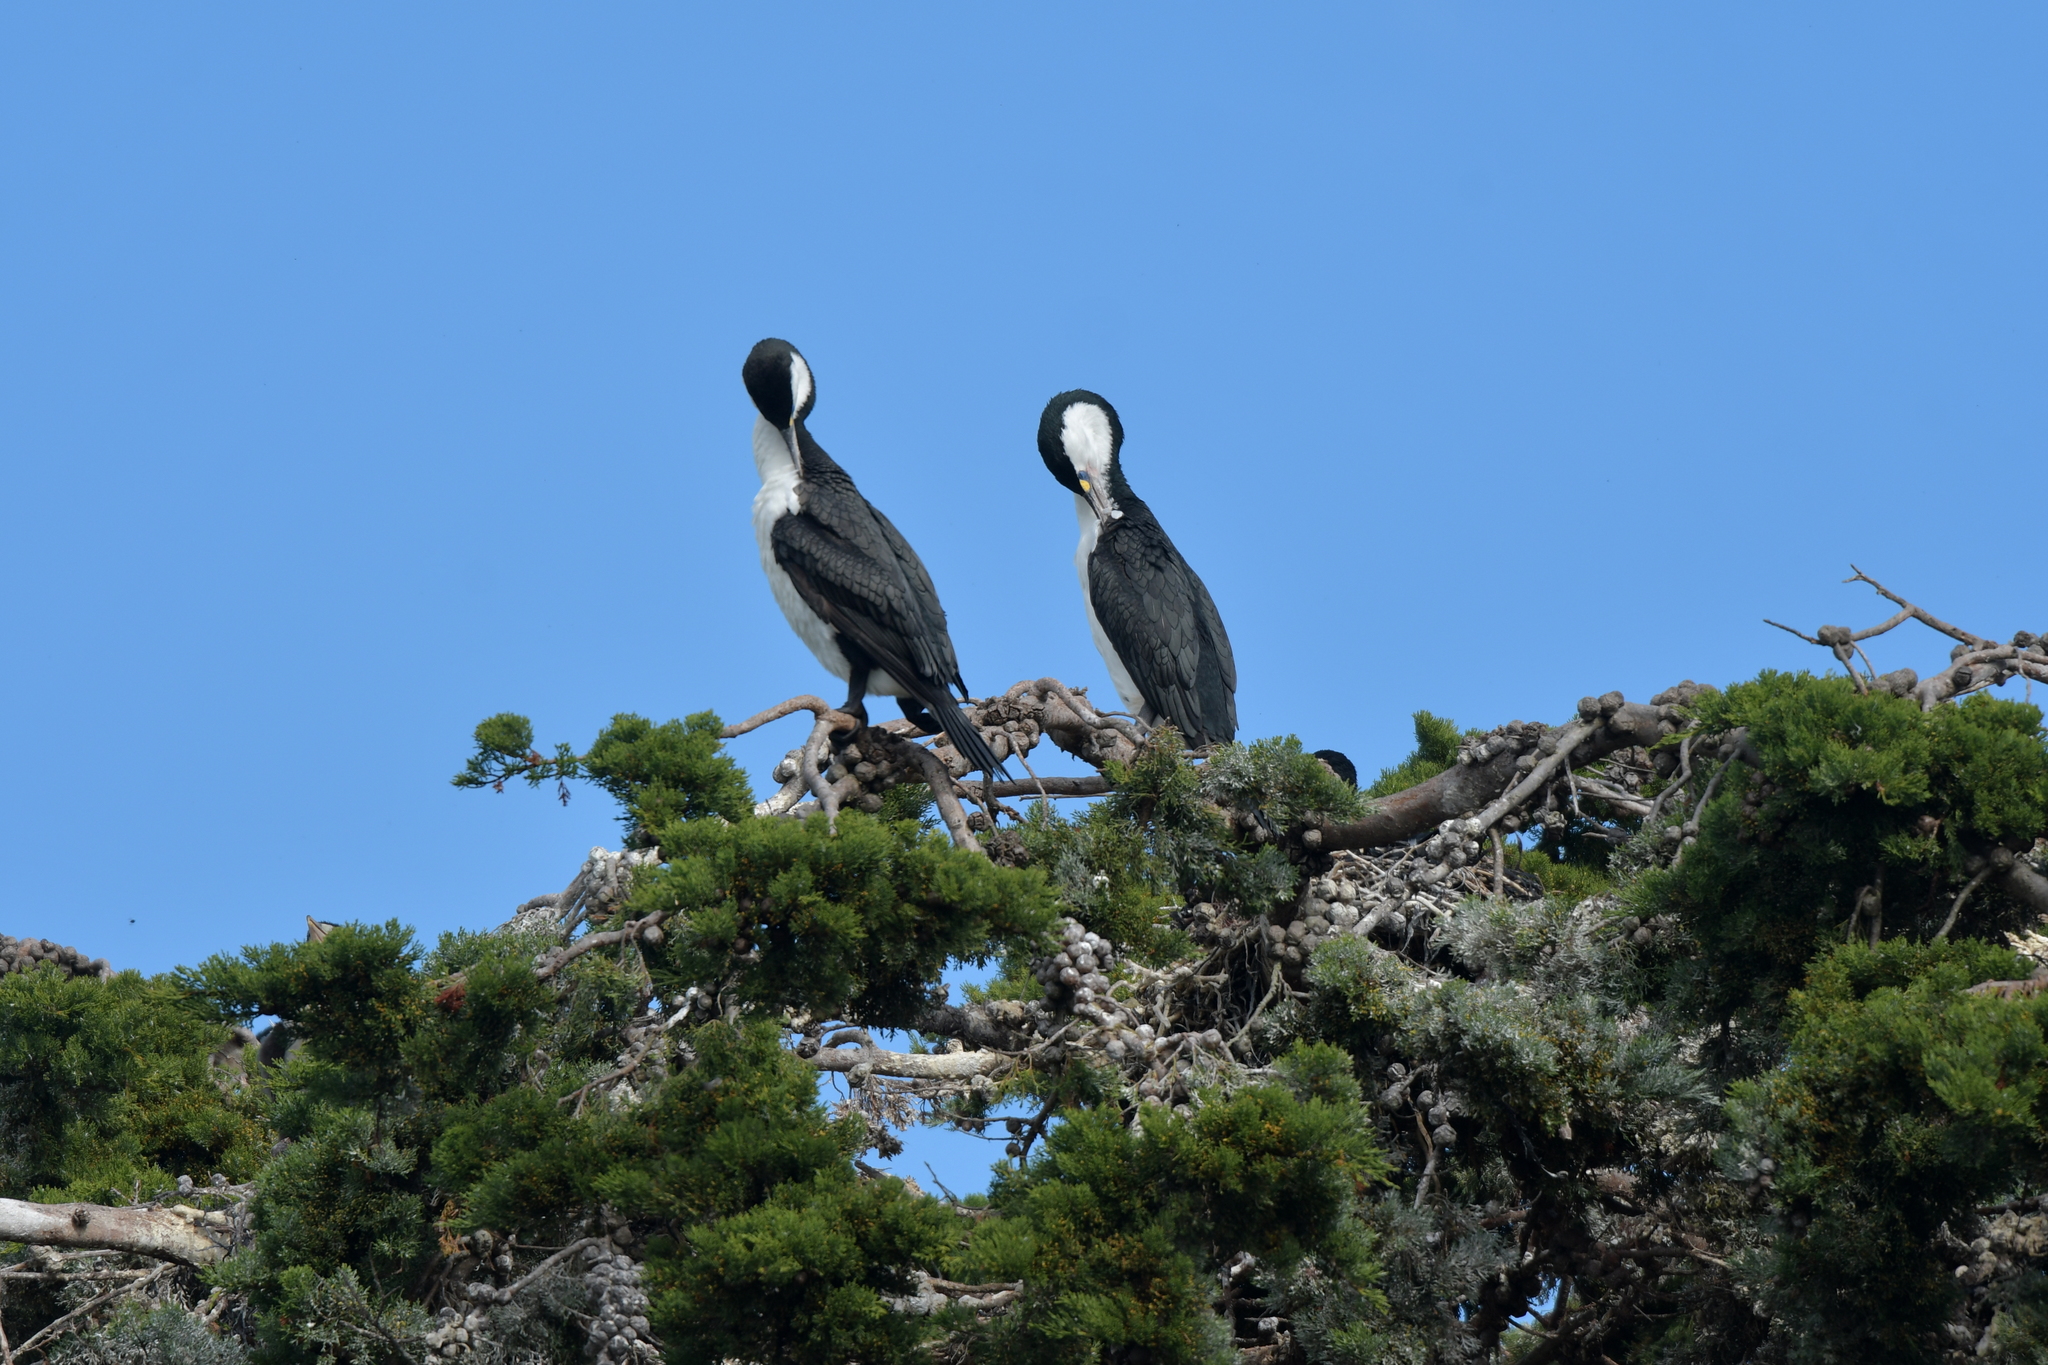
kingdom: Animalia
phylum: Chordata
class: Aves
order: Suliformes
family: Phalacrocoracidae
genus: Phalacrocorax
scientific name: Phalacrocorax varius
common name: Pied cormorant
